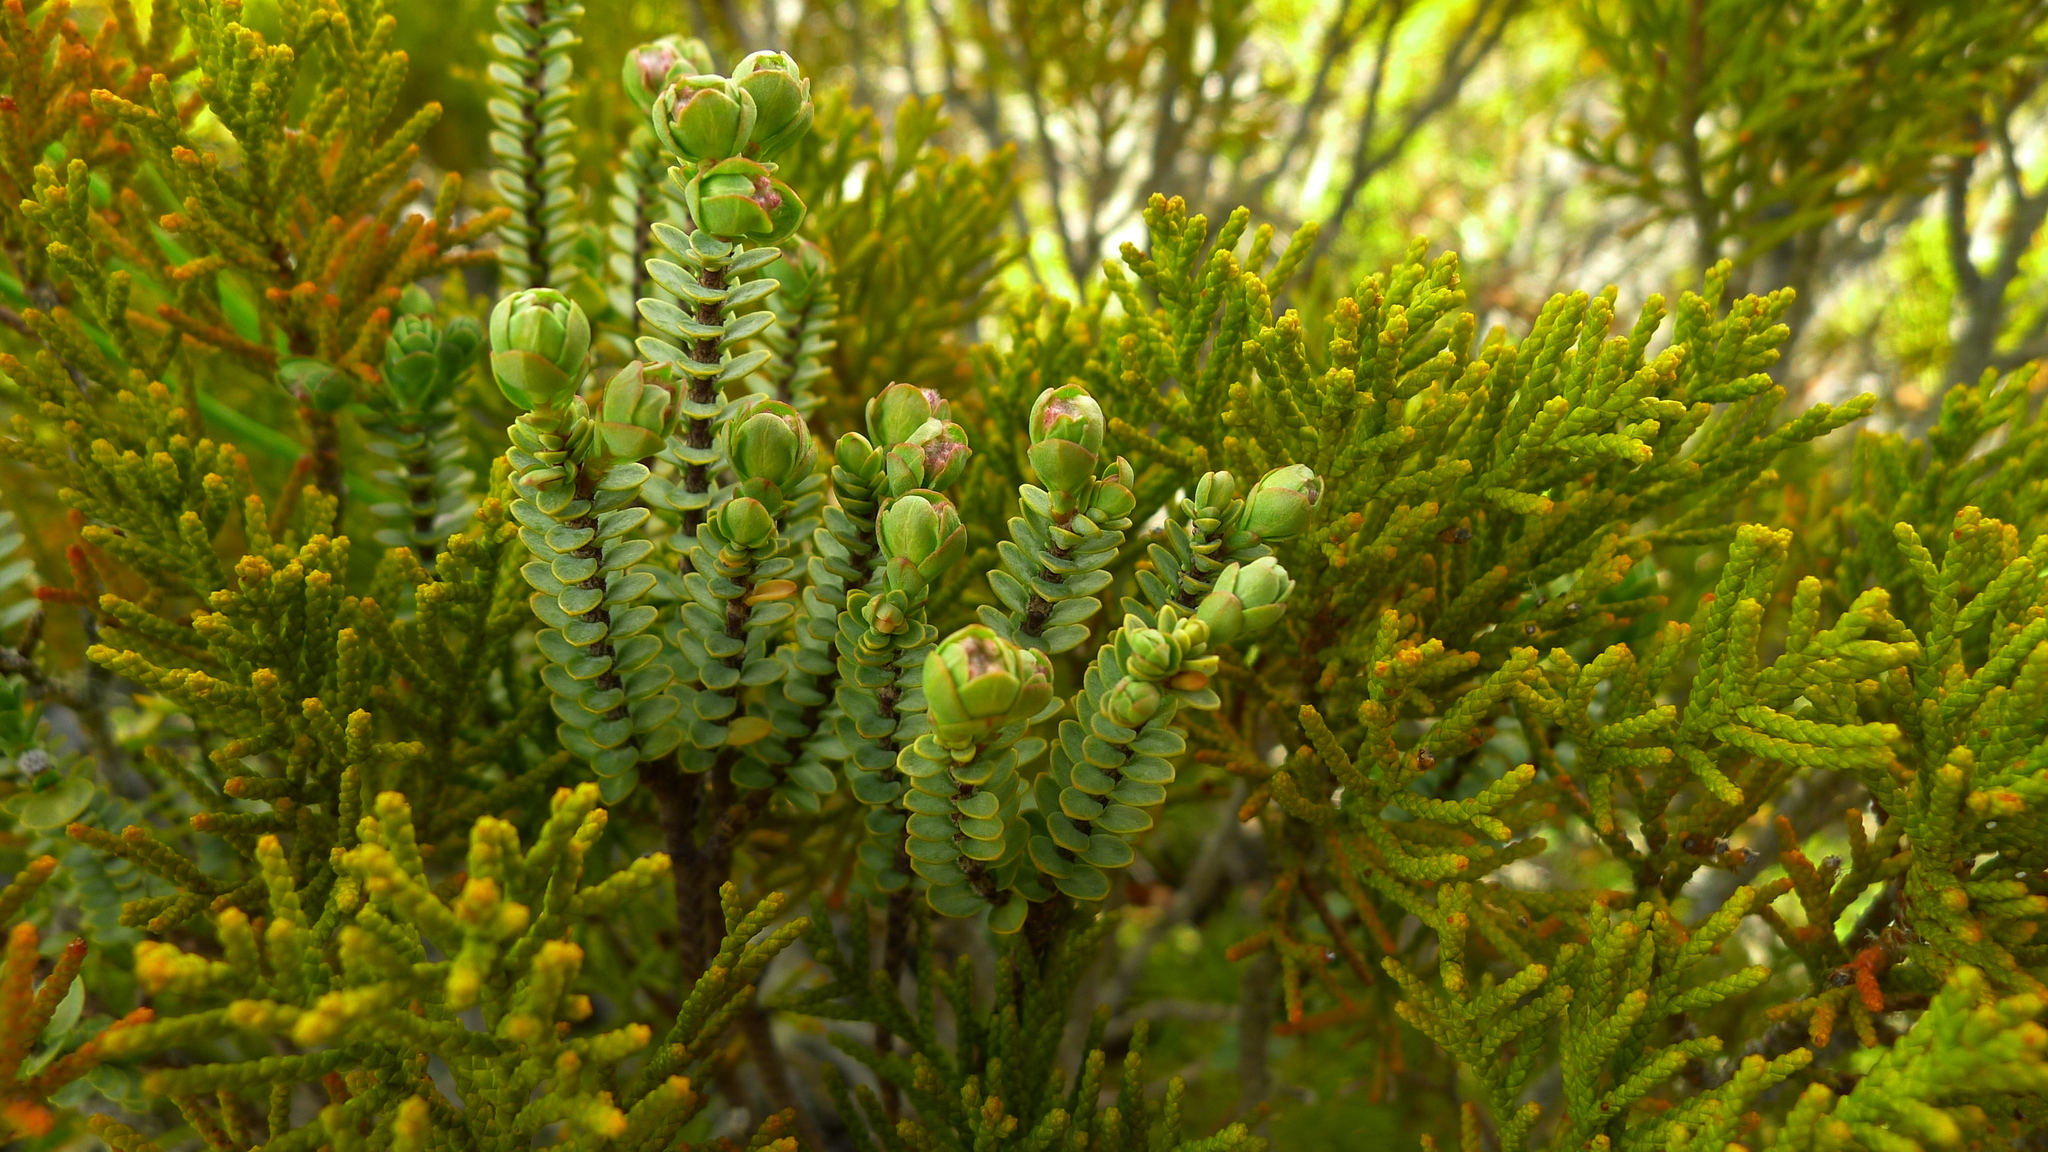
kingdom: Plantae
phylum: Tracheophyta
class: Magnoliopsida
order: Malvales
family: Thymelaeaceae
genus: Pimelea
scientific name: Pimelea traversii
